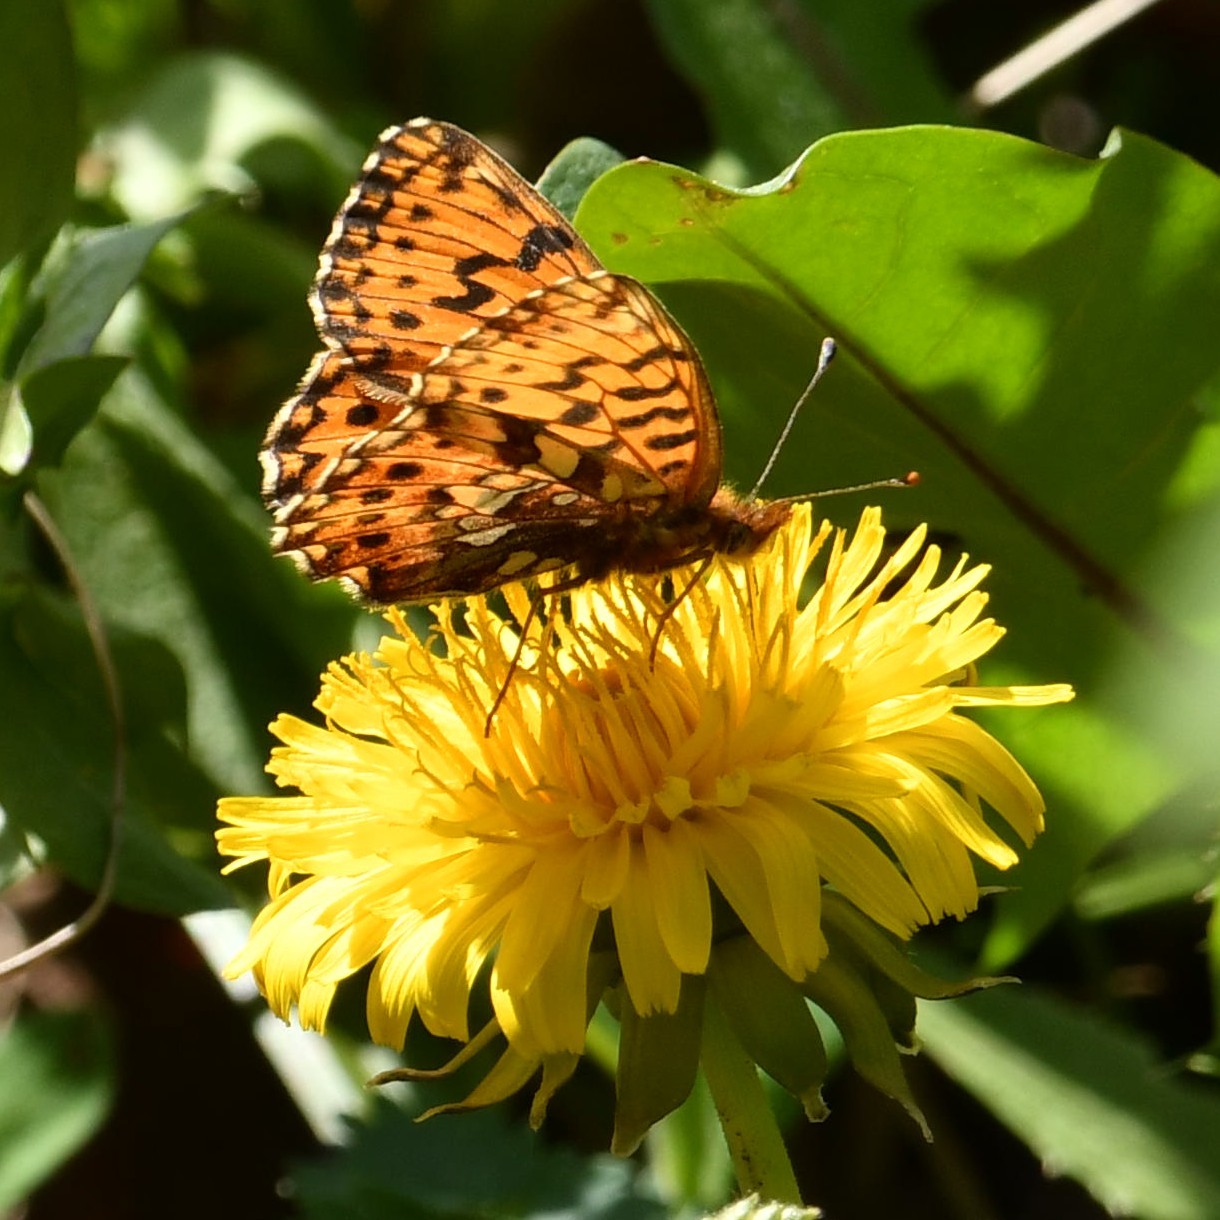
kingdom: Animalia
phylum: Arthropoda
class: Insecta
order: Lepidoptera
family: Nymphalidae
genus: Boloria
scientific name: Boloria dia
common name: Weaver's fritillary
